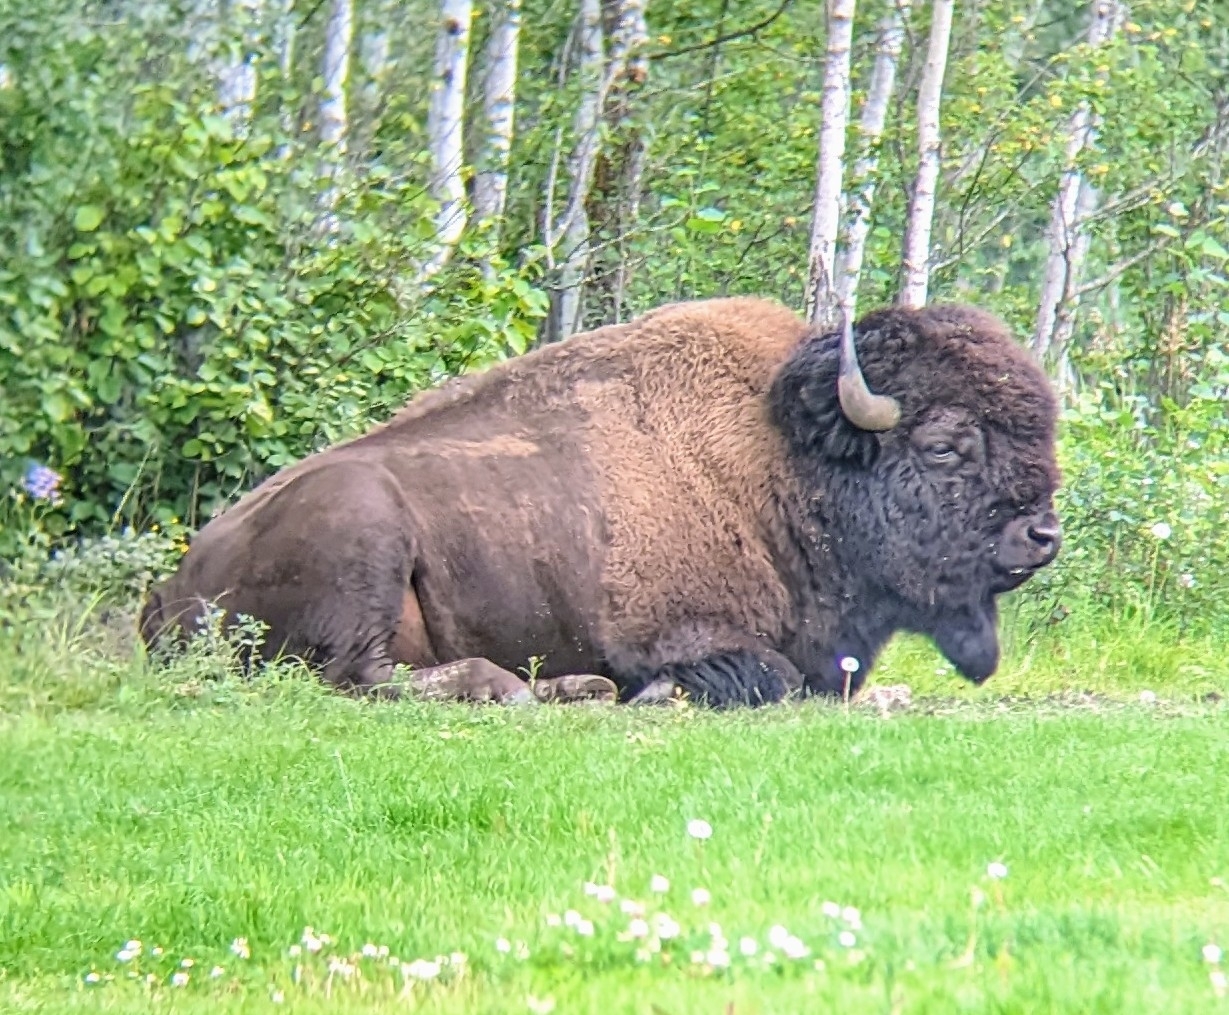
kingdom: Animalia
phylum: Chordata
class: Mammalia
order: Artiodactyla
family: Bovidae
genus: Bison
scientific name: Bison bison
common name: American bison
